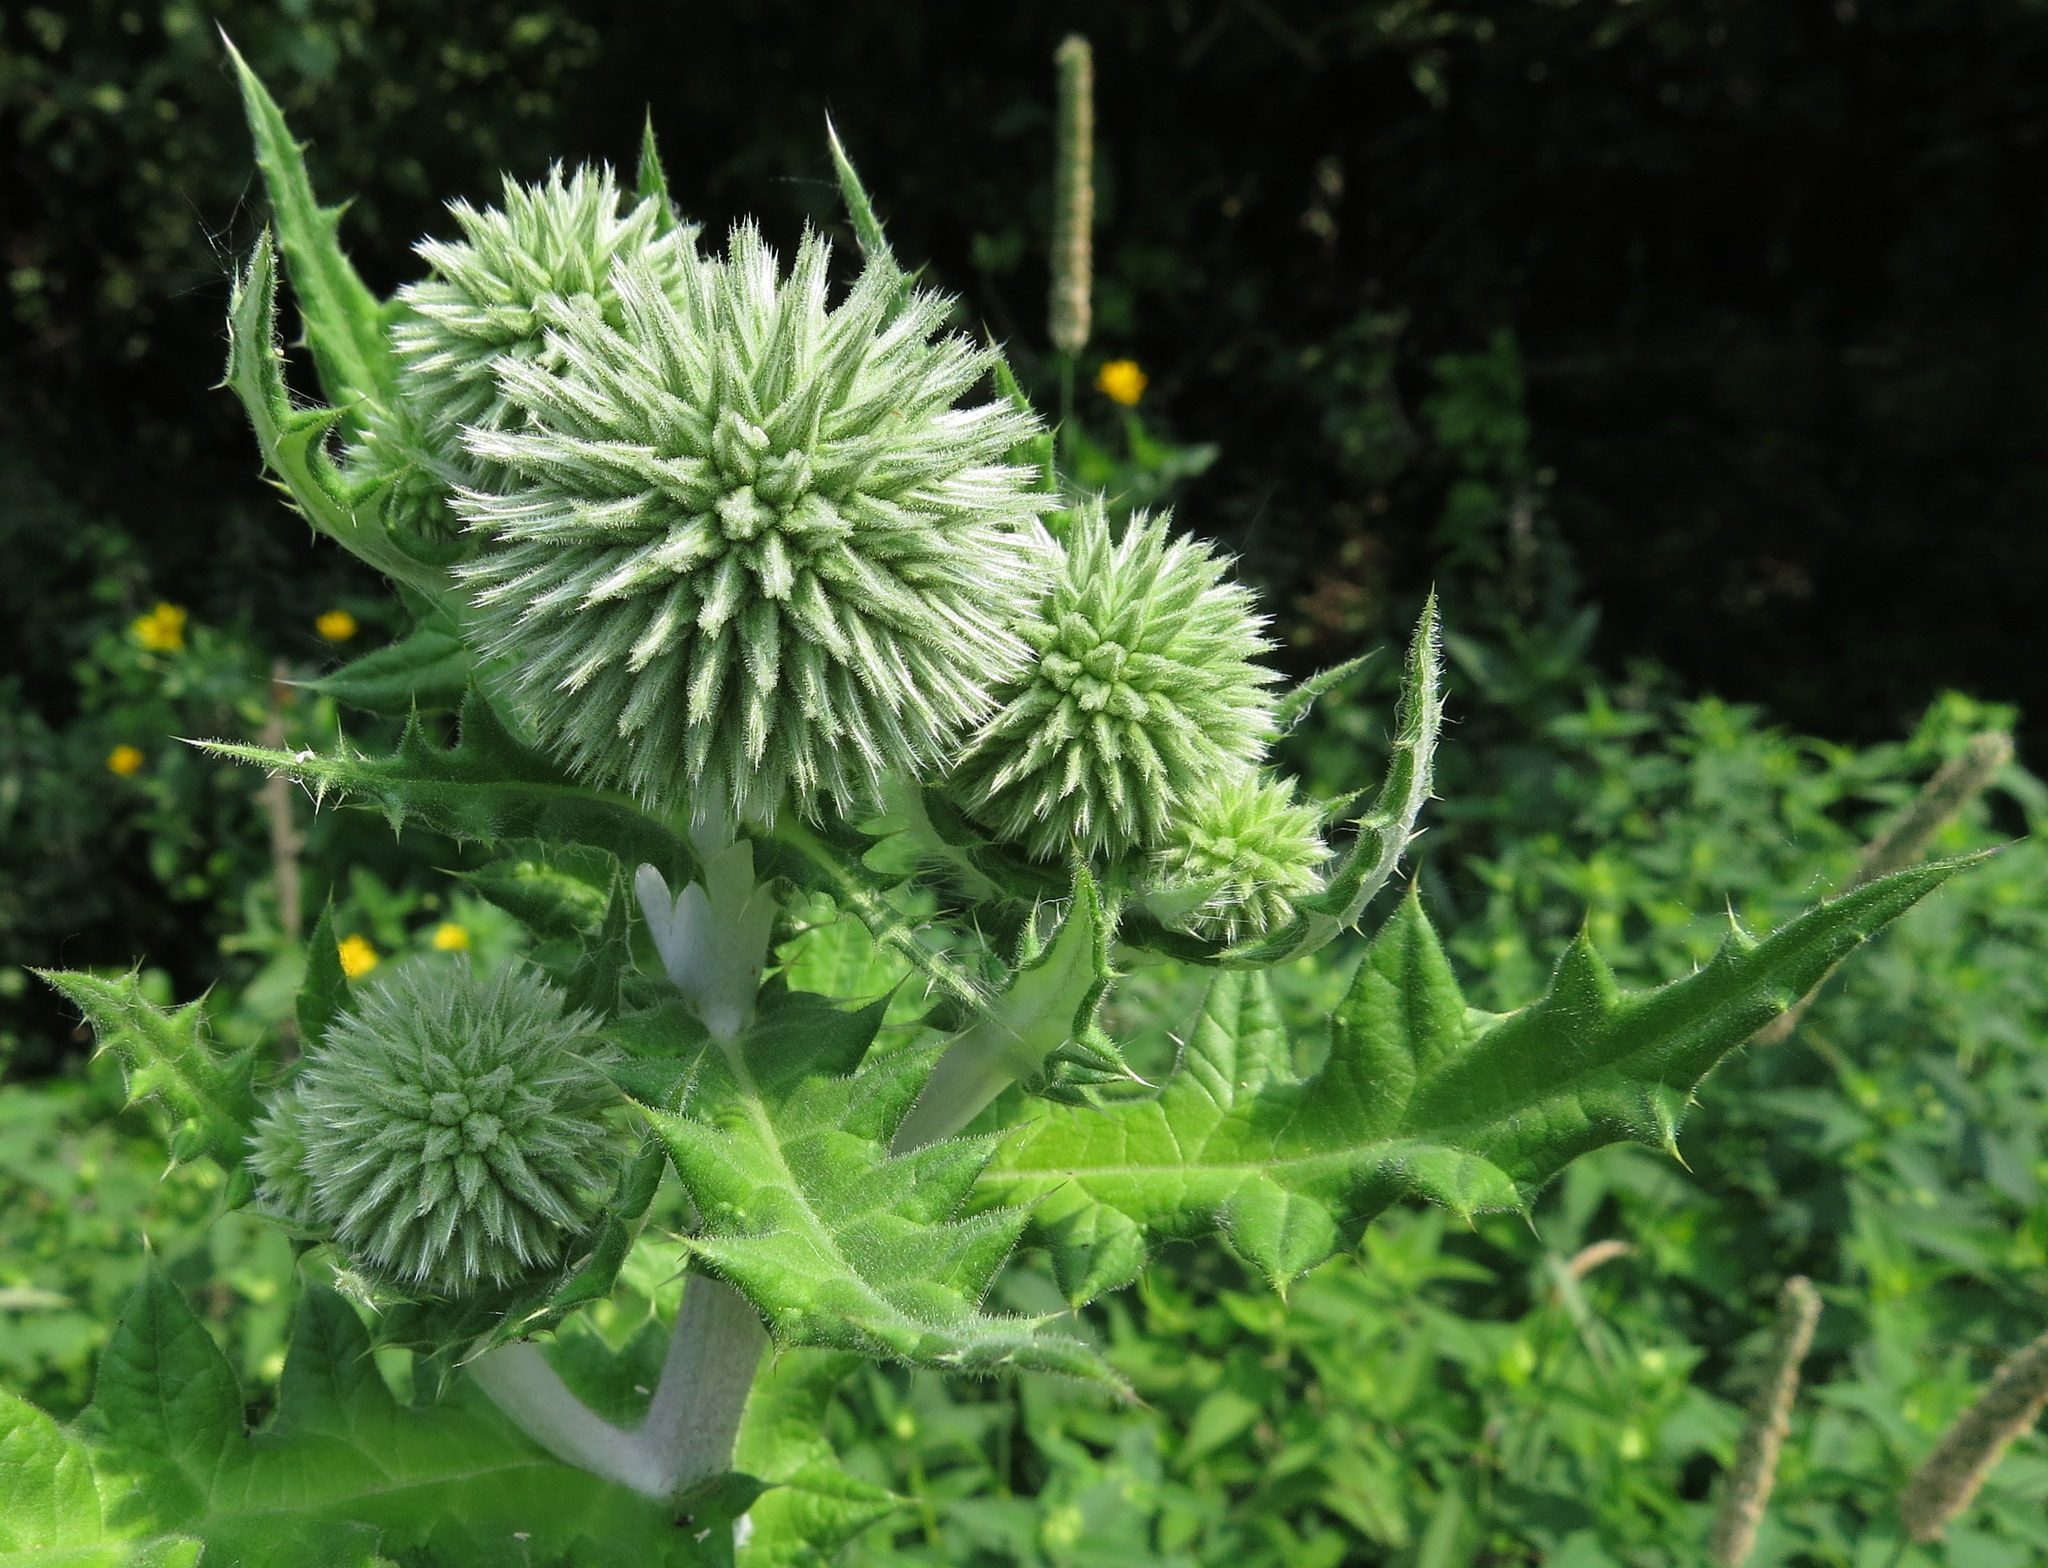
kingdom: Plantae
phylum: Tracheophyta
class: Magnoliopsida
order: Asterales
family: Asteraceae
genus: Echinops
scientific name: Echinops sphaerocephalus
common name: Glandular globe-thistle
